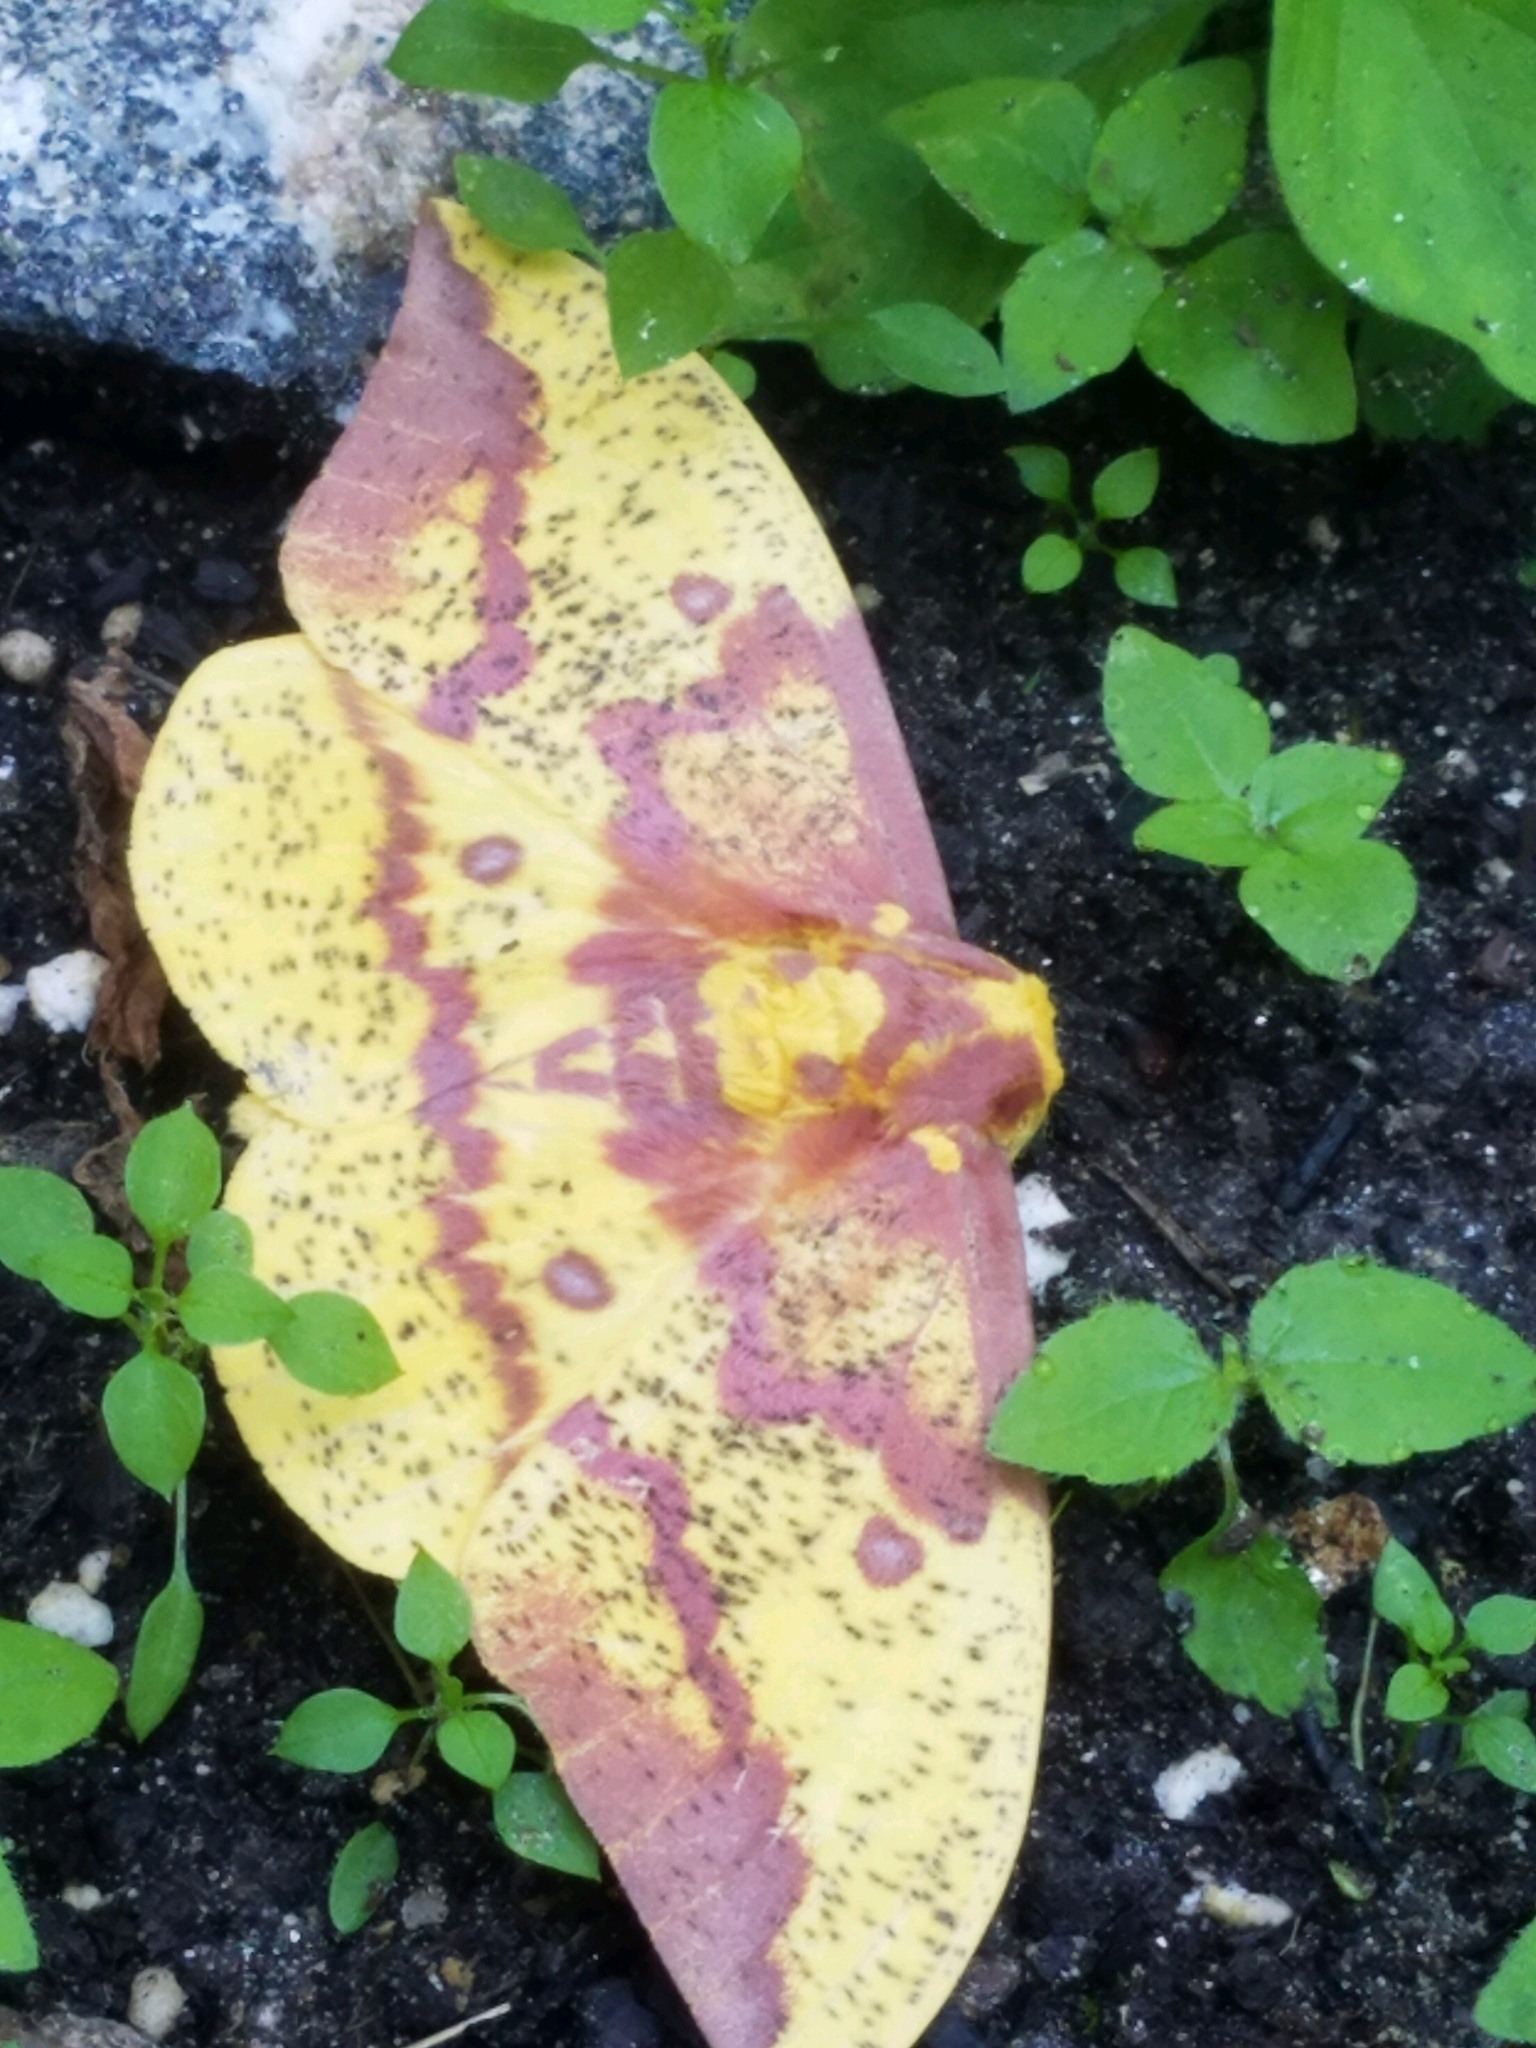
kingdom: Animalia
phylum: Arthropoda
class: Insecta
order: Lepidoptera
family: Saturniidae
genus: Eacles
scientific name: Eacles imperialis
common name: Imperial moth
